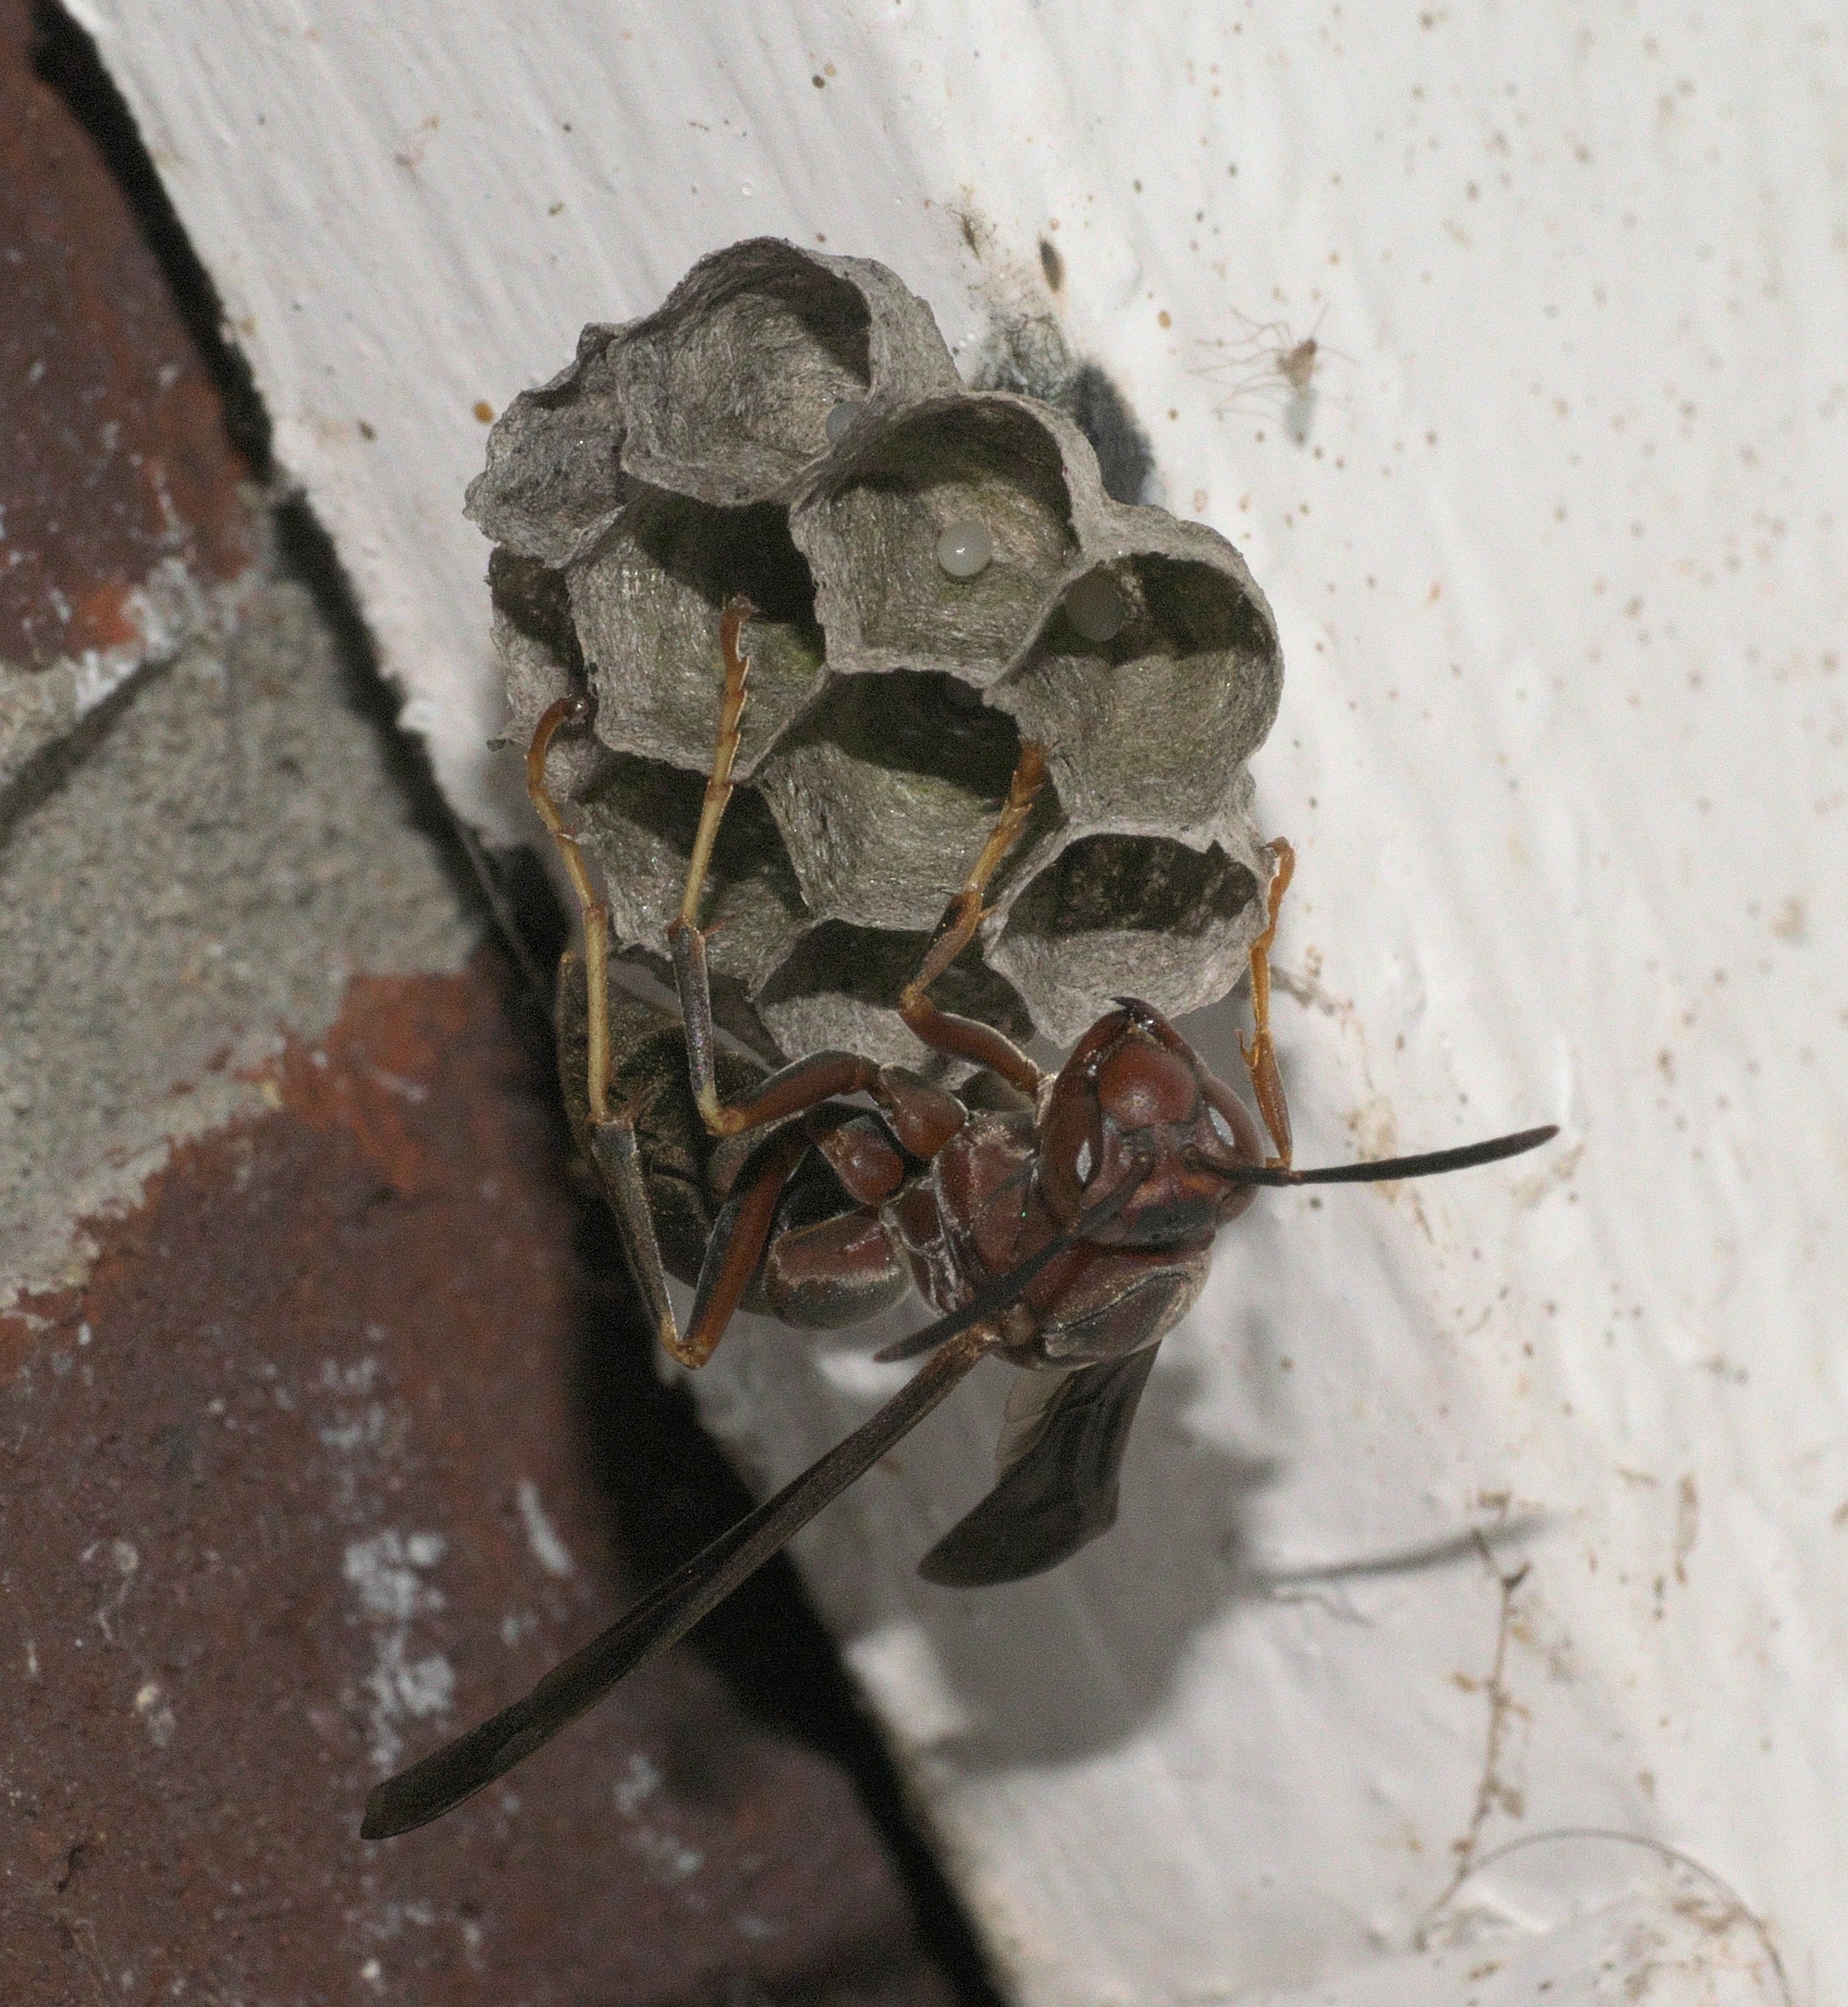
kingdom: Animalia
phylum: Arthropoda
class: Insecta
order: Hymenoptera
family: Eumenidae
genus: Polistes
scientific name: Polistes metricus
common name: Metric paper wasp
